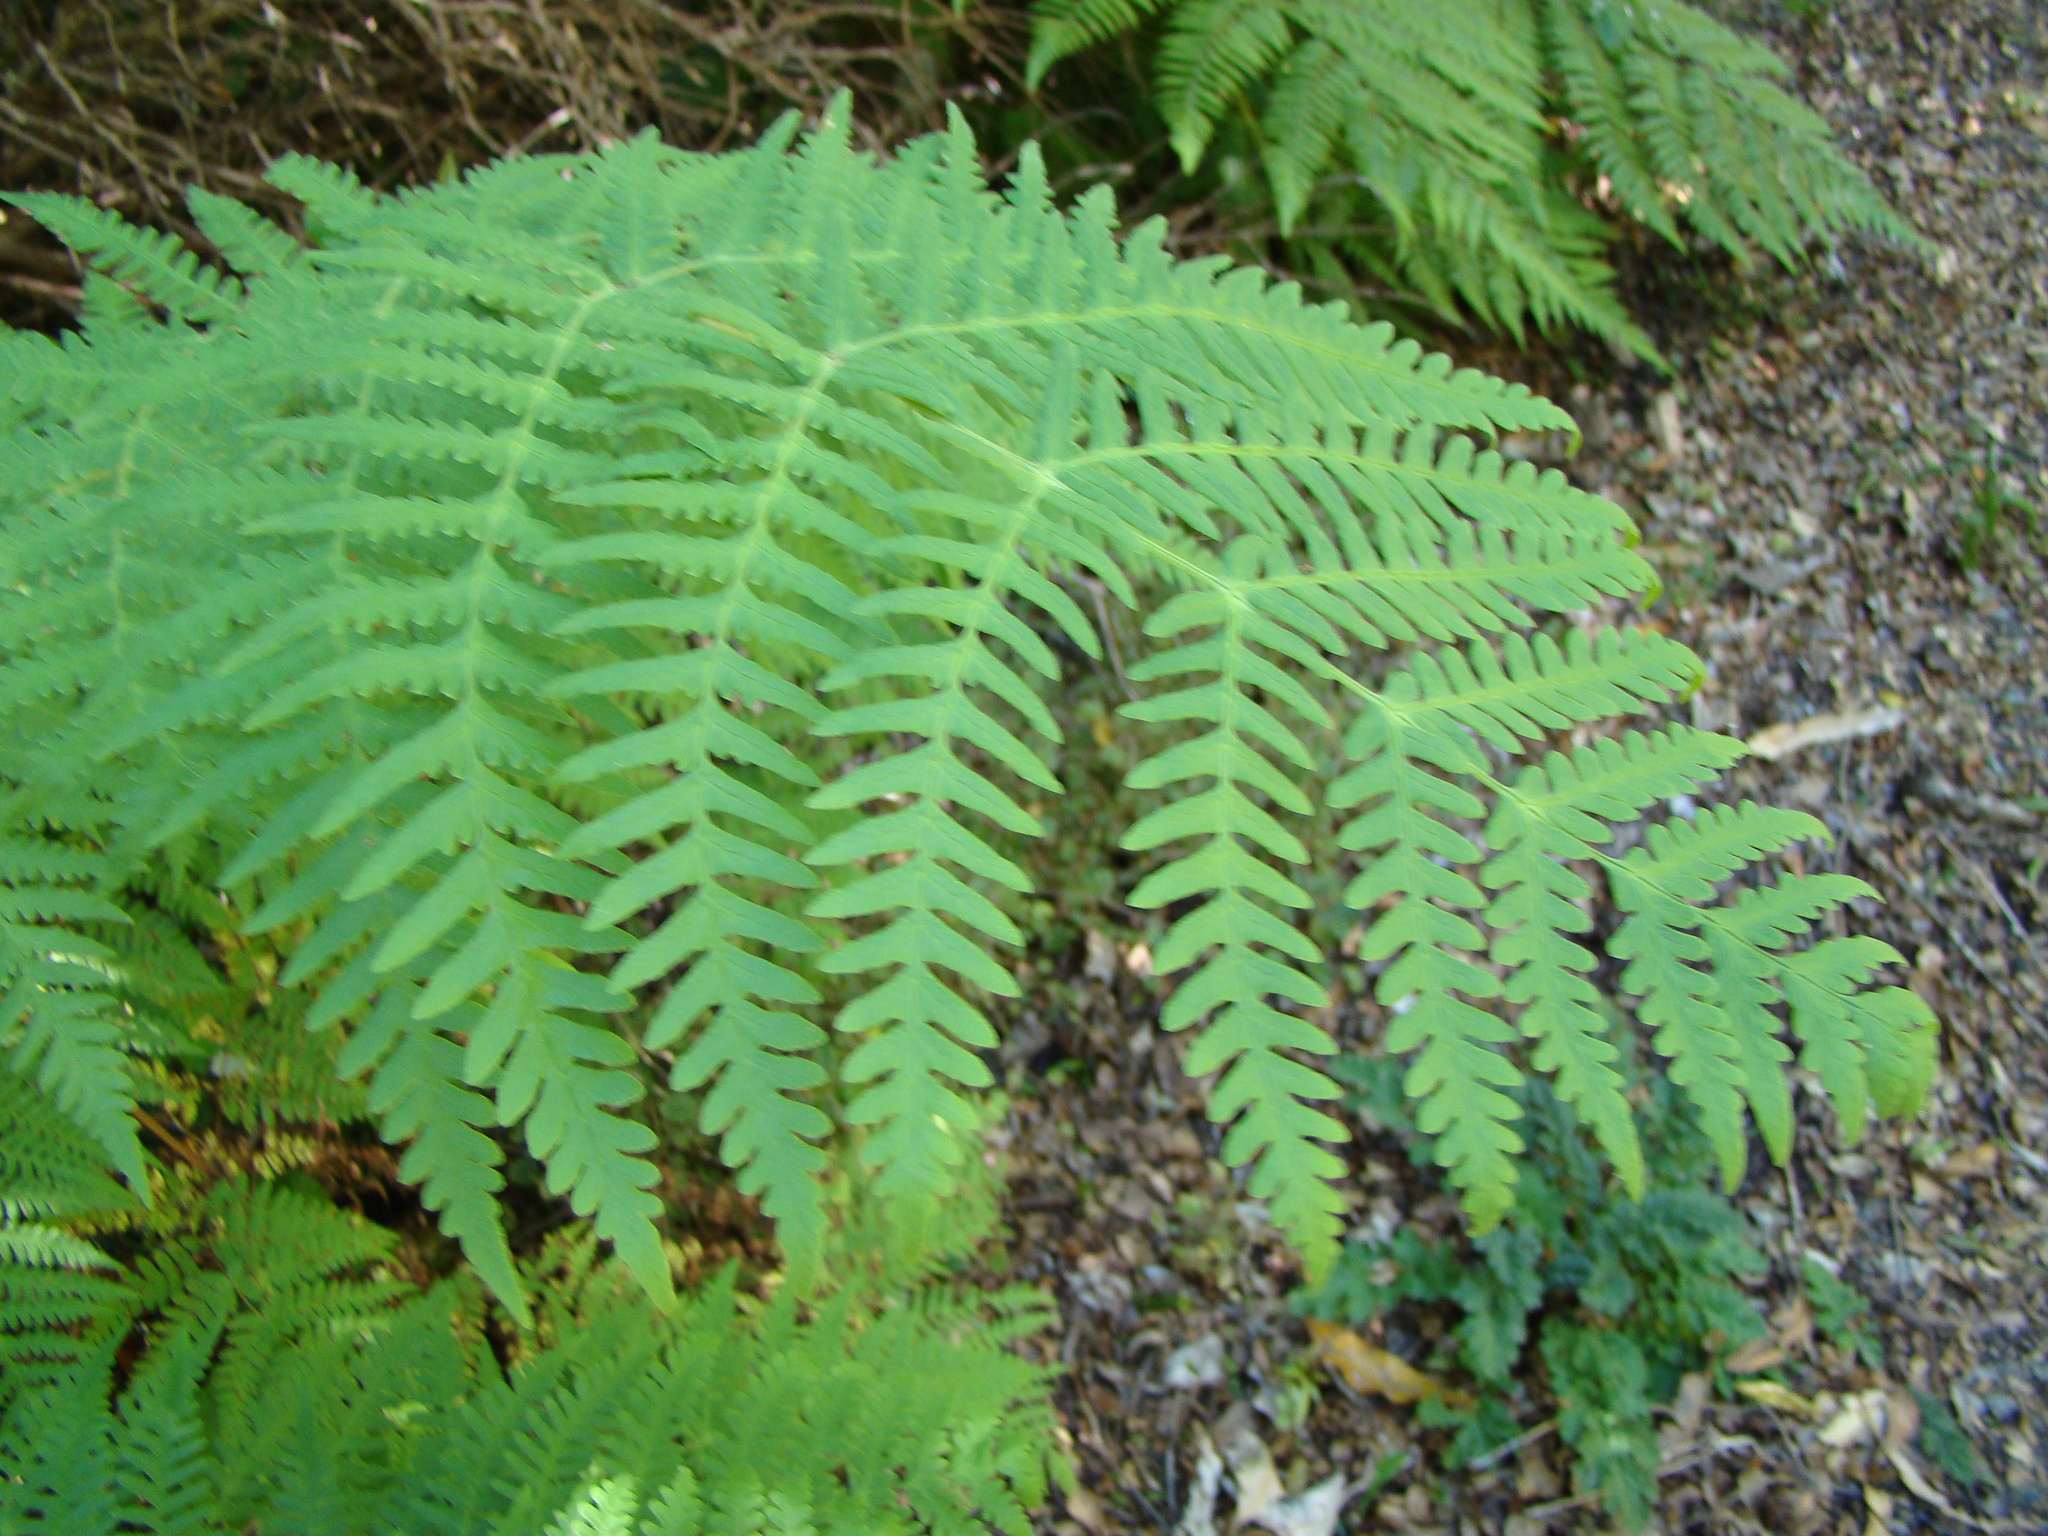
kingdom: Plantae
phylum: Tracheophyta
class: Polypodiopsida
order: Polypodiales
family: Dennstaedtiaceae
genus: Histiopteris
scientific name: Histiopteris incisa
